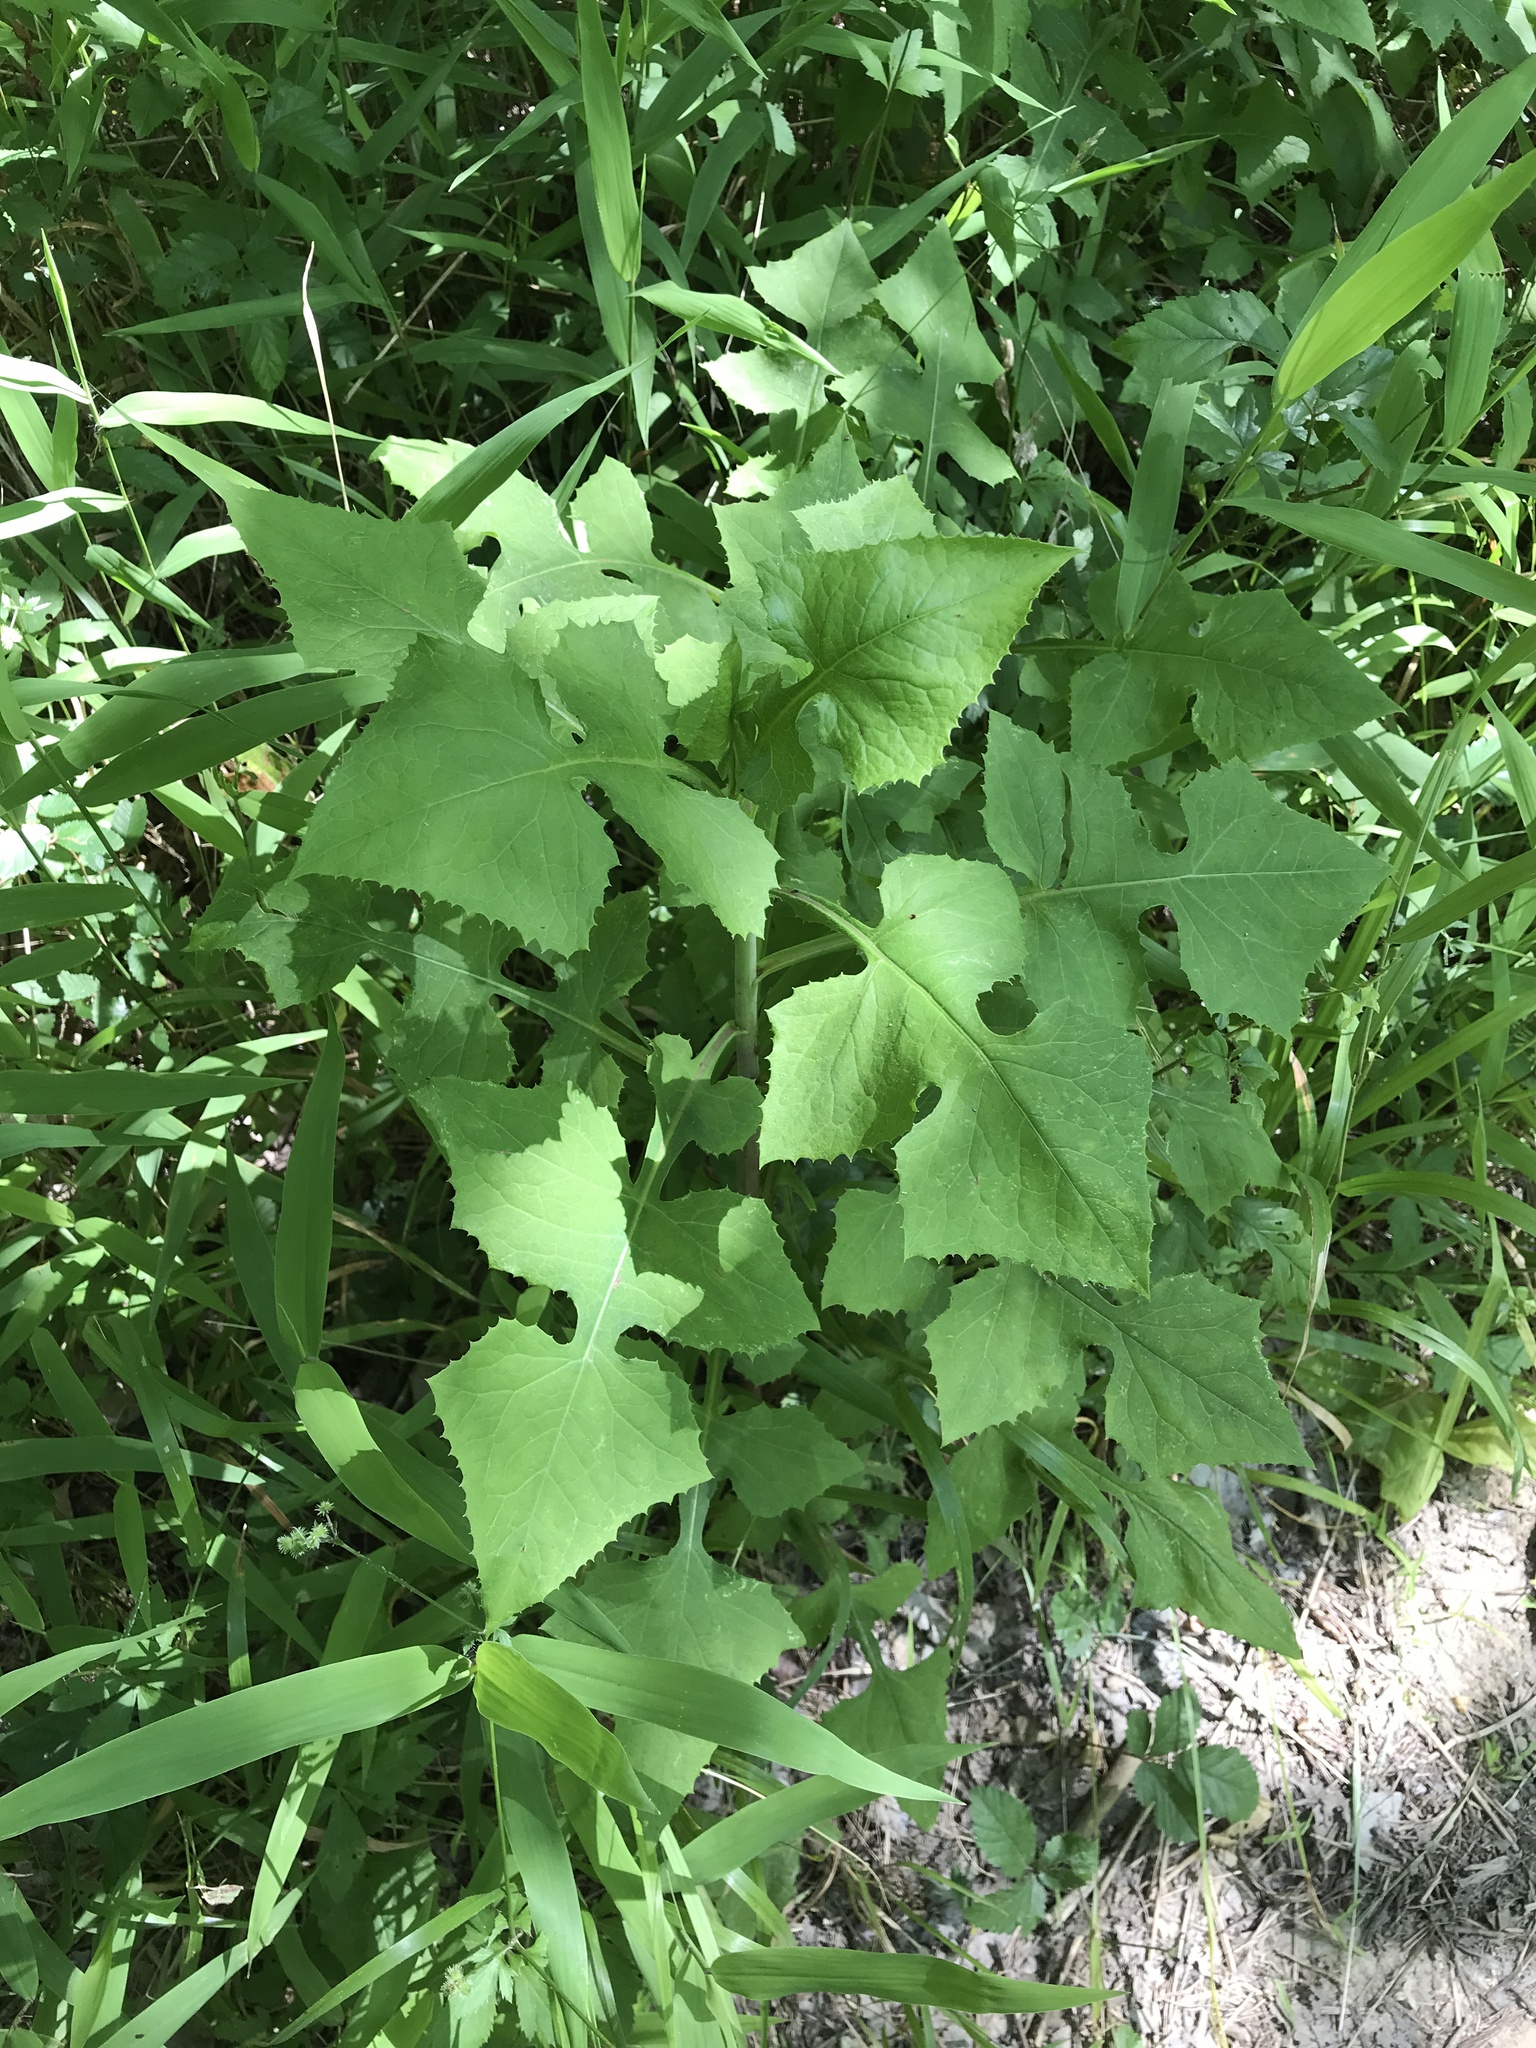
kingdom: Plantae
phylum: Tracheophyta
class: Magnoliopsida
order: Asterales
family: Asteraceae
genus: Lactuca
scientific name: Lactuca floridana
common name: Woodland lettuce
